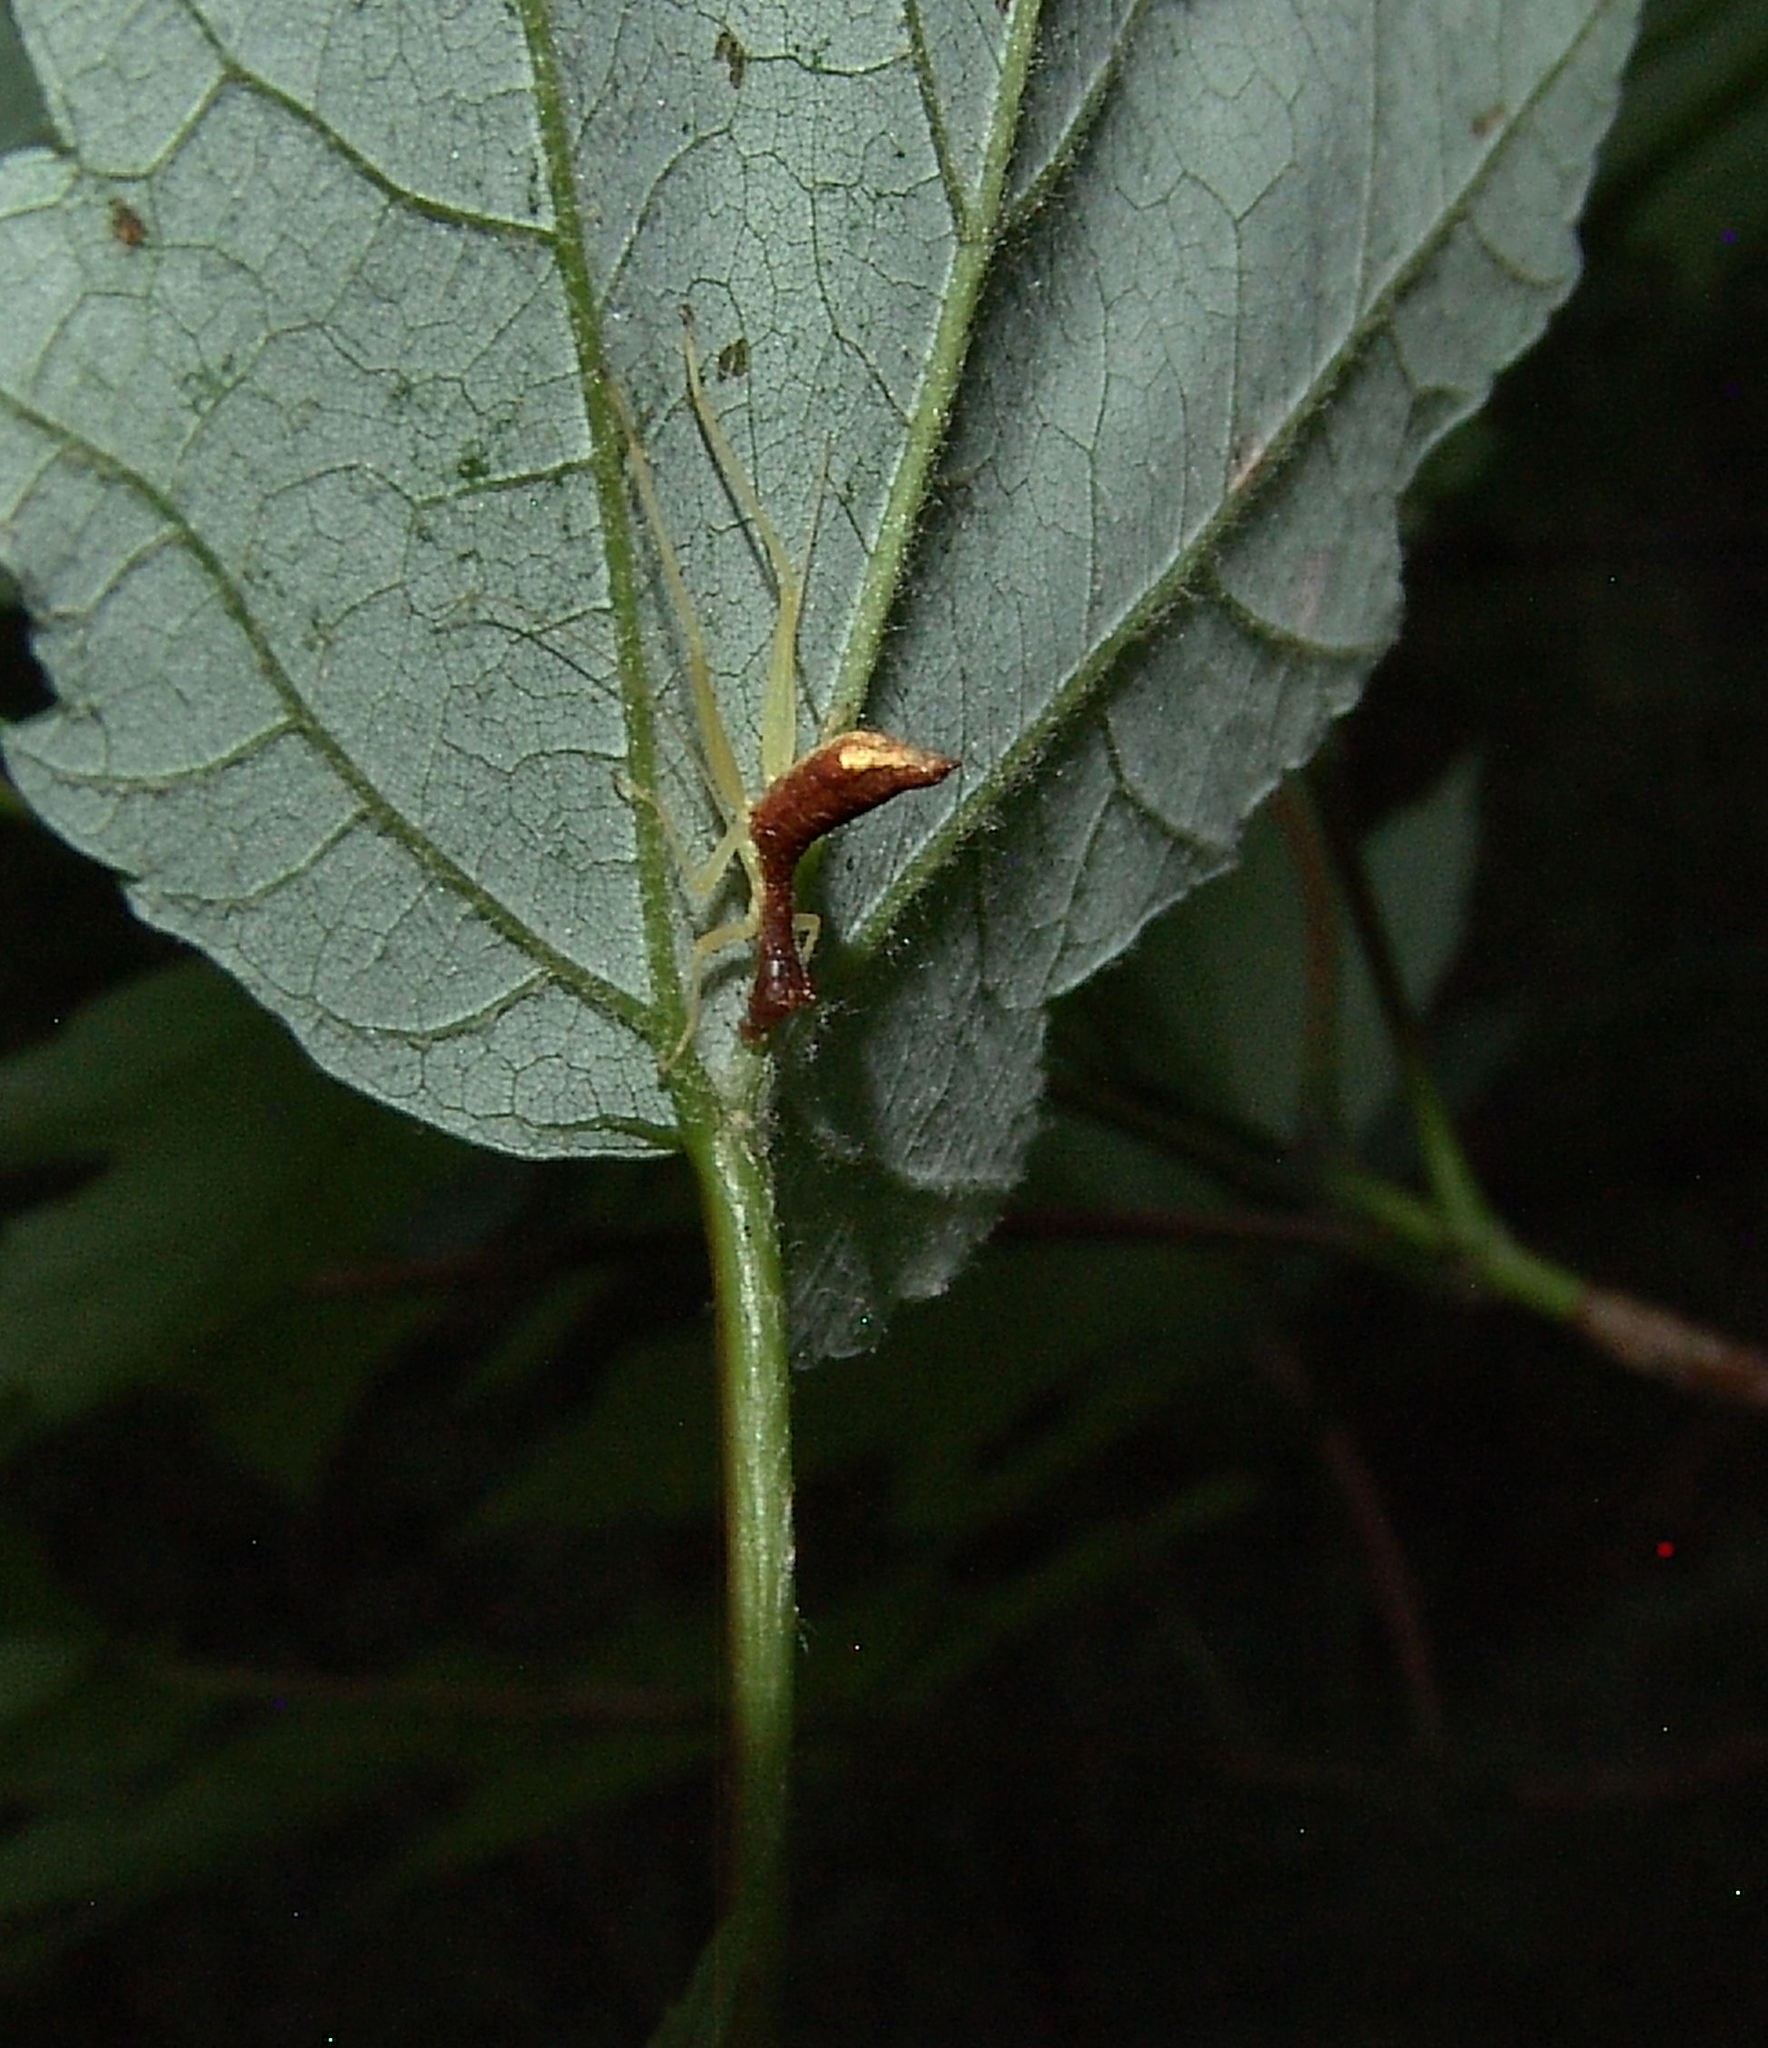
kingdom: Animalia
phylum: Arthropoda
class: Insecta
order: Orthoptera
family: Gryllidae
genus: Neoxabea
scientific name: Neoxabea bipunctata
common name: Two-spotted tree cricket
